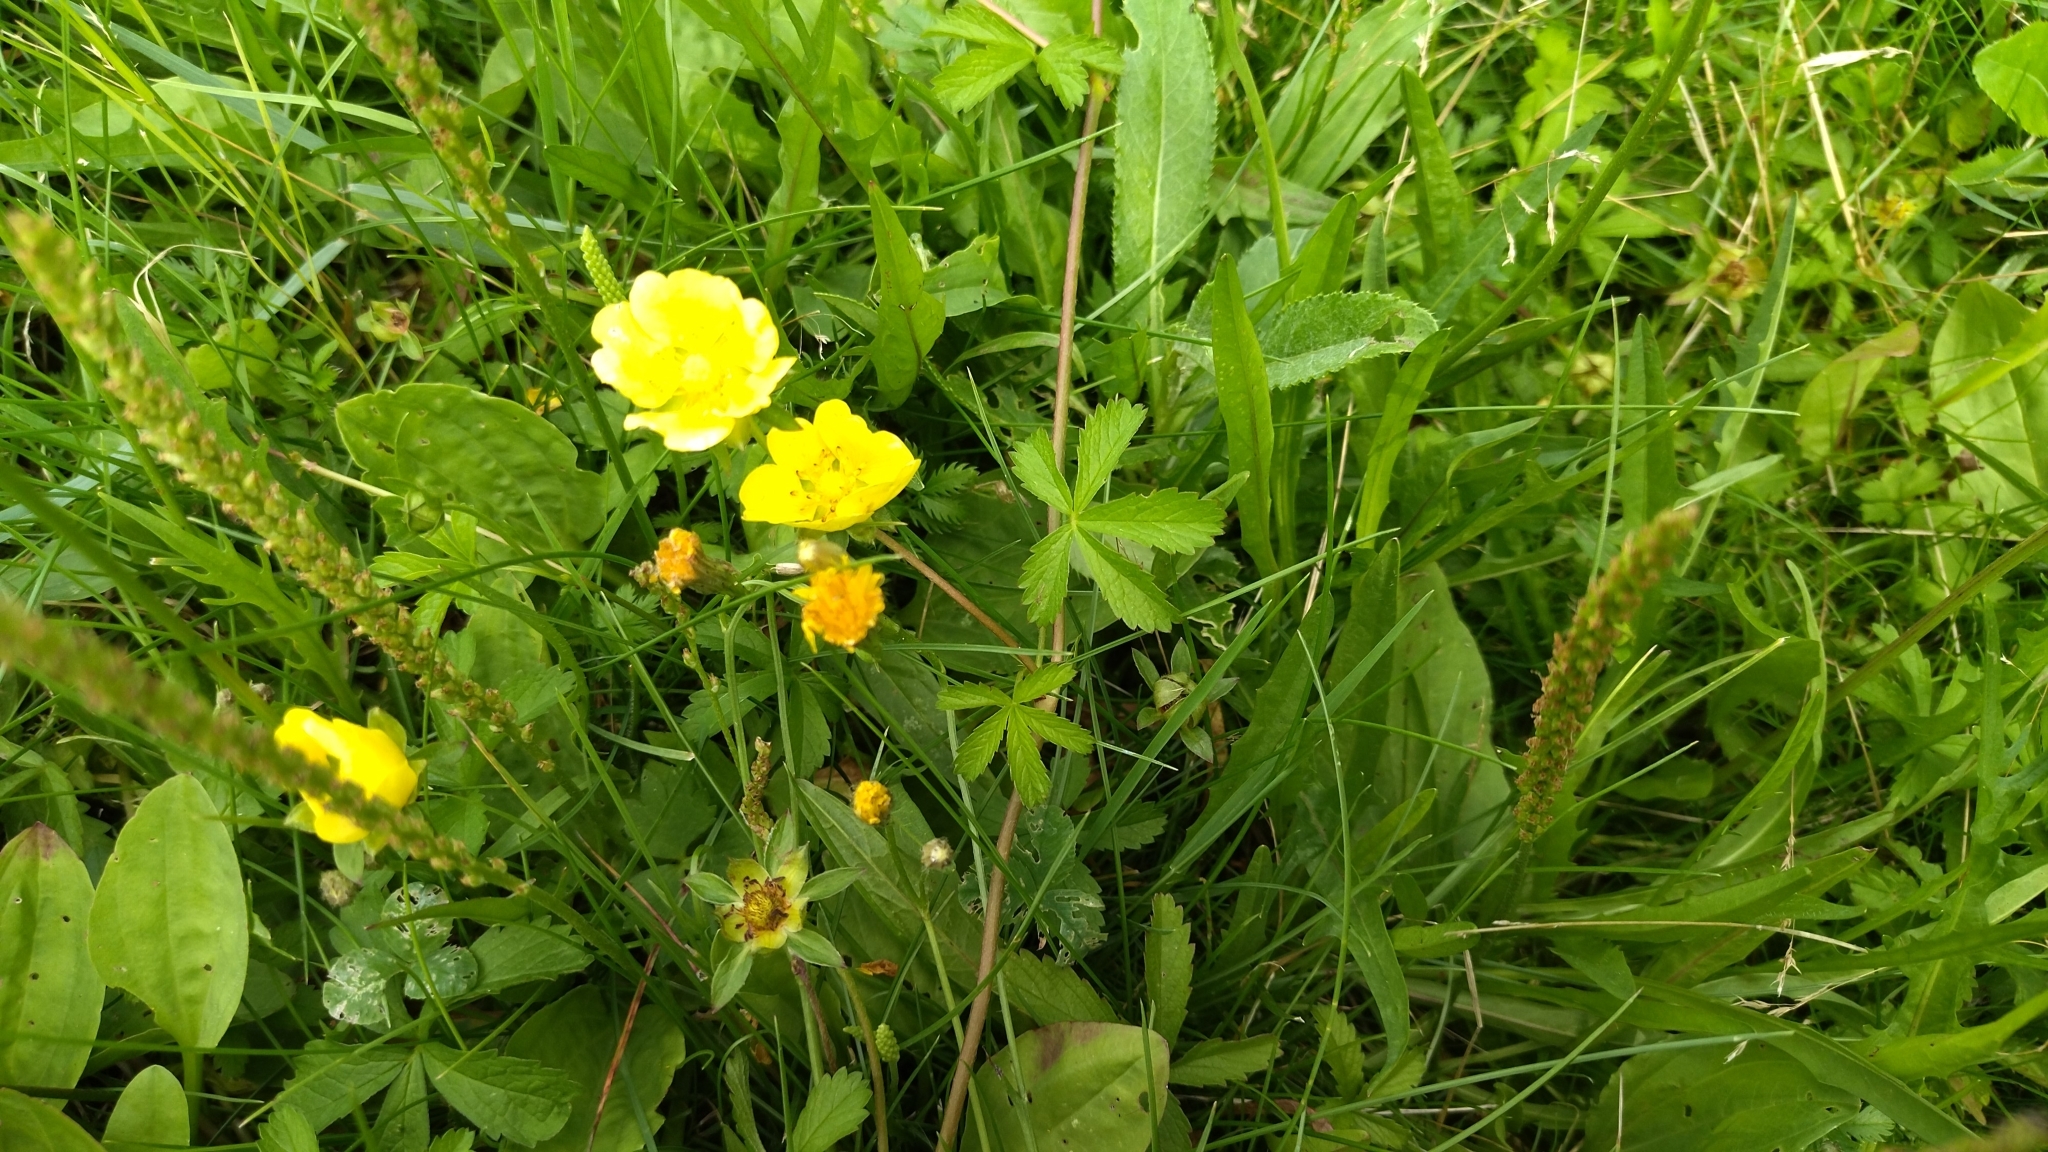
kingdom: Plantae
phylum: Tracheophyta
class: Magnoliopsida
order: Rosales
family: Rosaceae
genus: Potentilla
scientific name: Potentilla reptans
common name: Creeping cinquefoil
